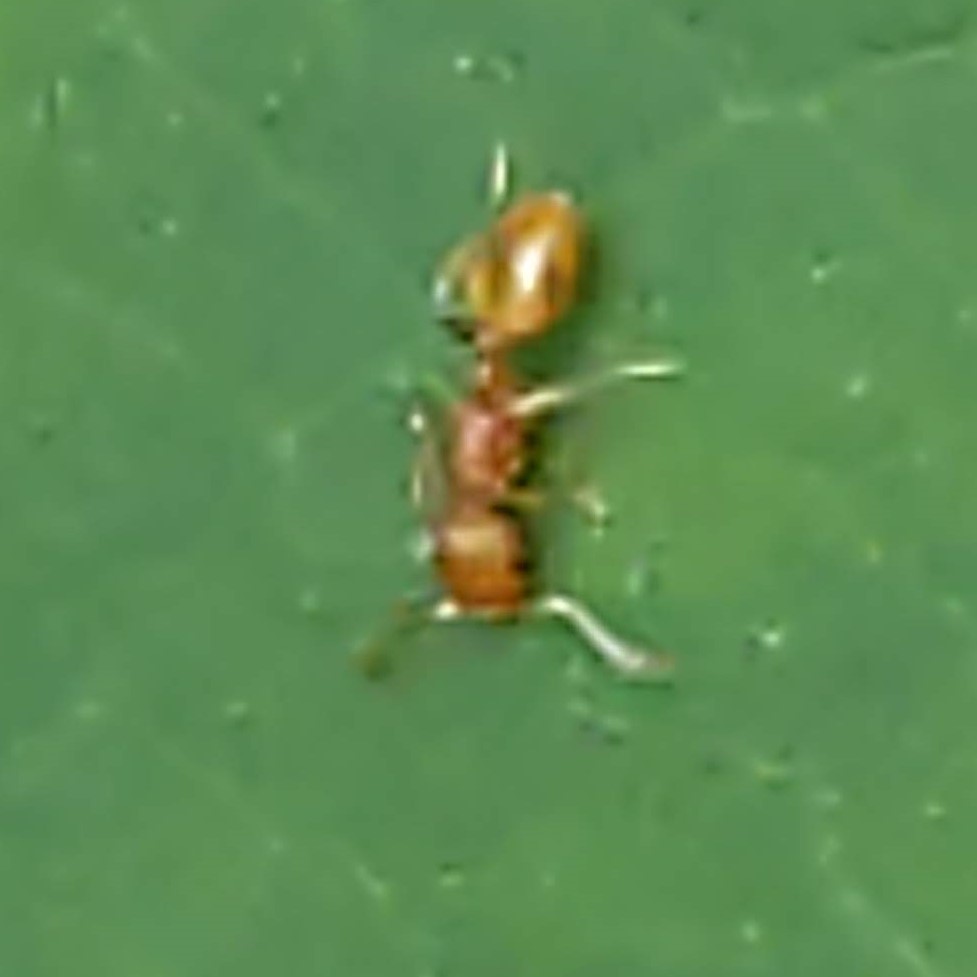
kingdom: Animalia
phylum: Arthropoda
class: Insecta
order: Hymenoptera
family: Formicidae
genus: Temnothorax
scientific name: Temnothorax
